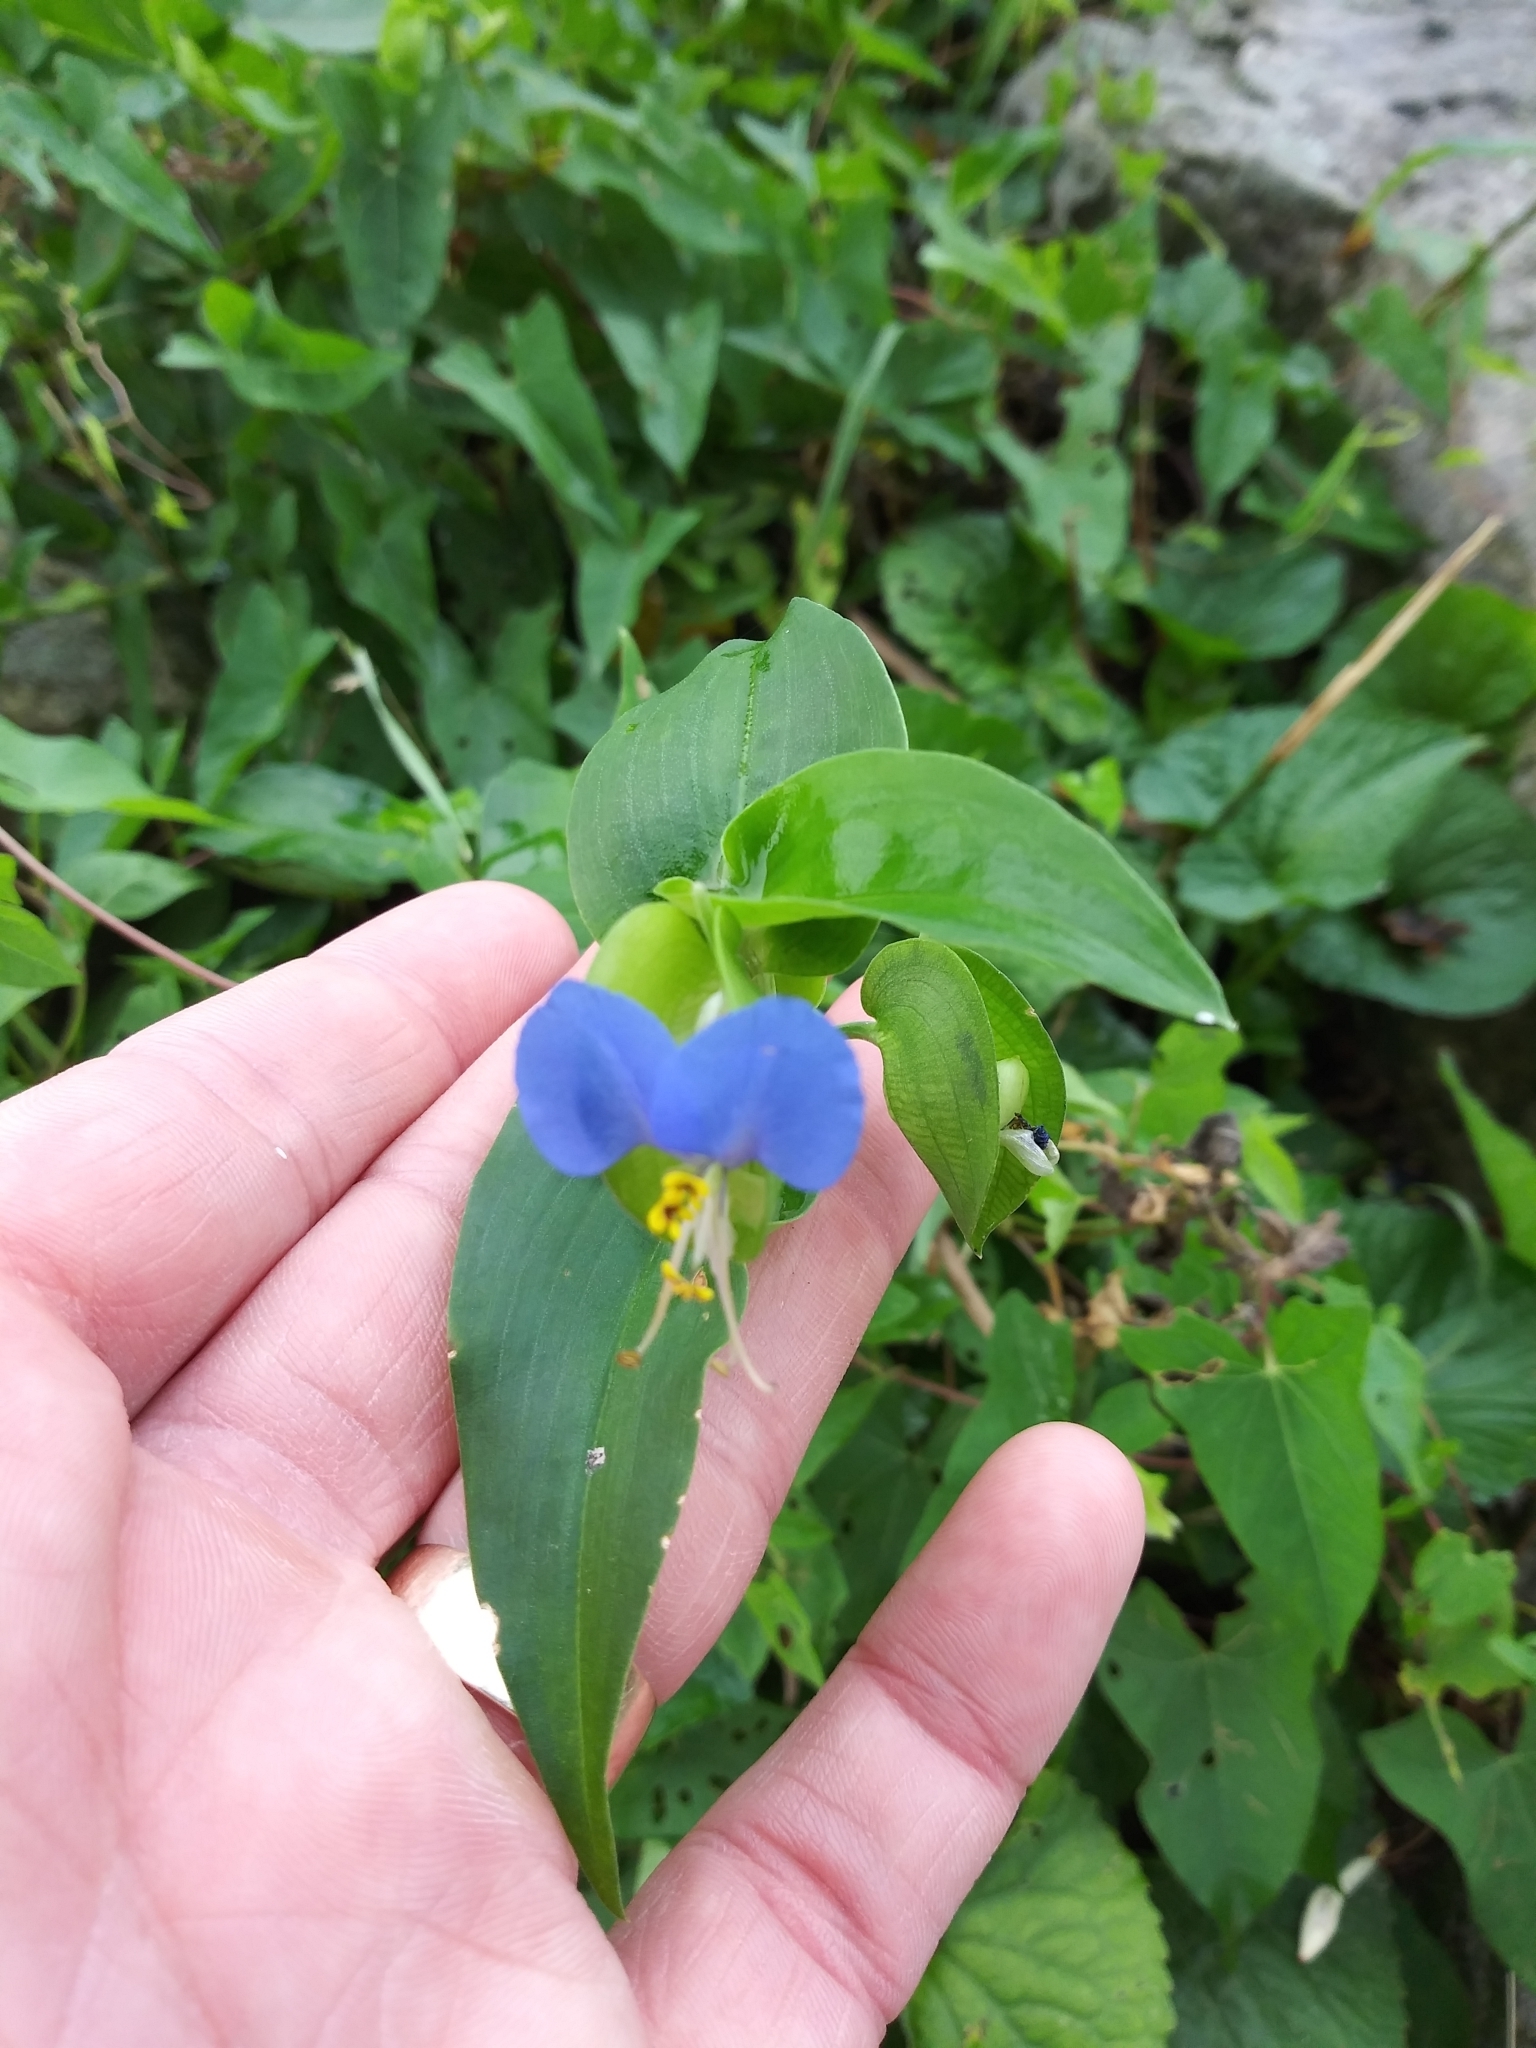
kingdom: Plantae
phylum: Tracheophyta
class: Liliopsida
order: Commelinales
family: Commelinaceae
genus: Commelina
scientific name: Commelina communis
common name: Asiatic dayflower
